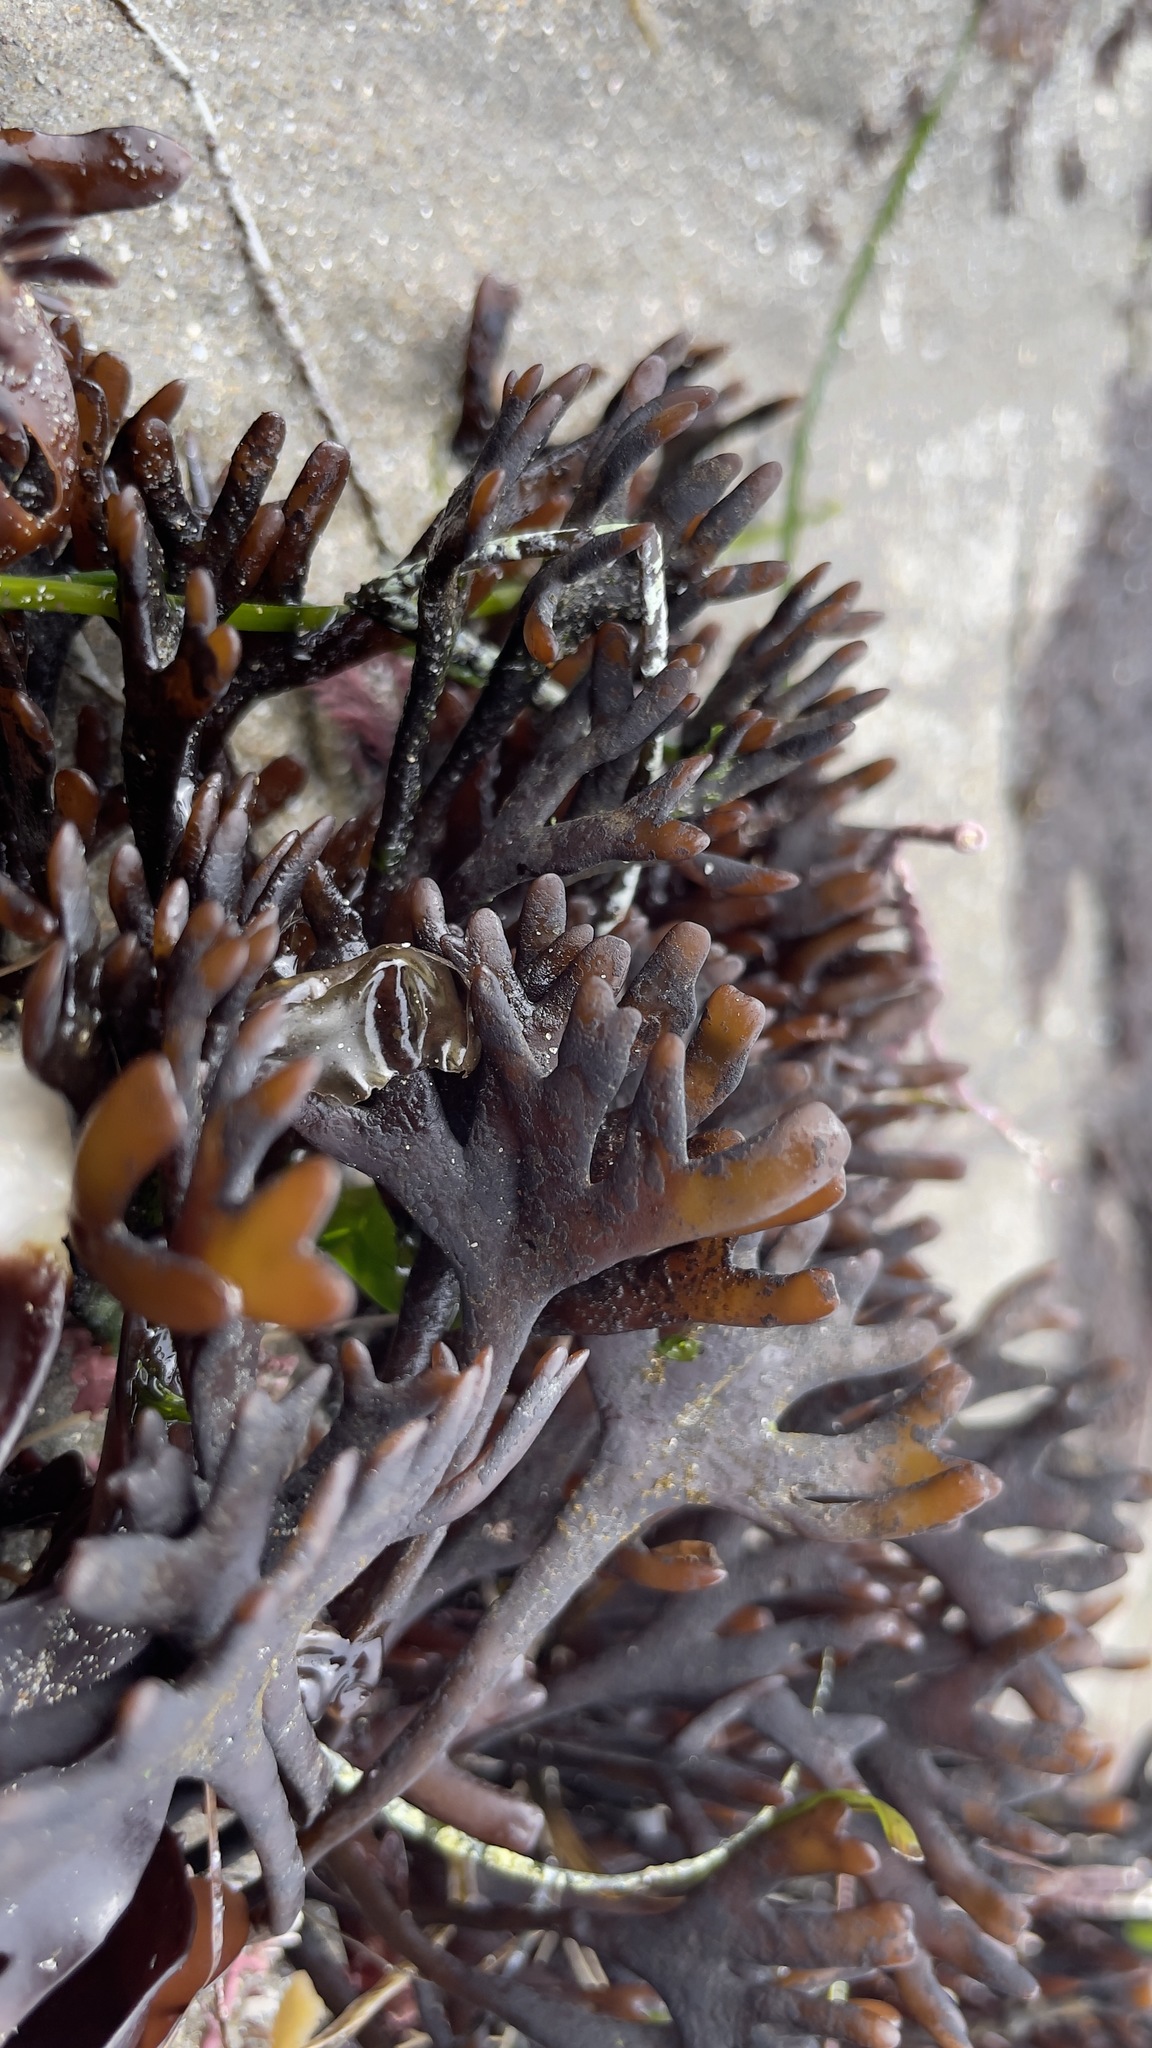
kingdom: Plantae
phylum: Rhodophyta
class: Florideophyceae
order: Gigartinales
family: Phyllophoraceae
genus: Ahnfeltiopsis
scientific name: Ahnfeltiopsis linearis
